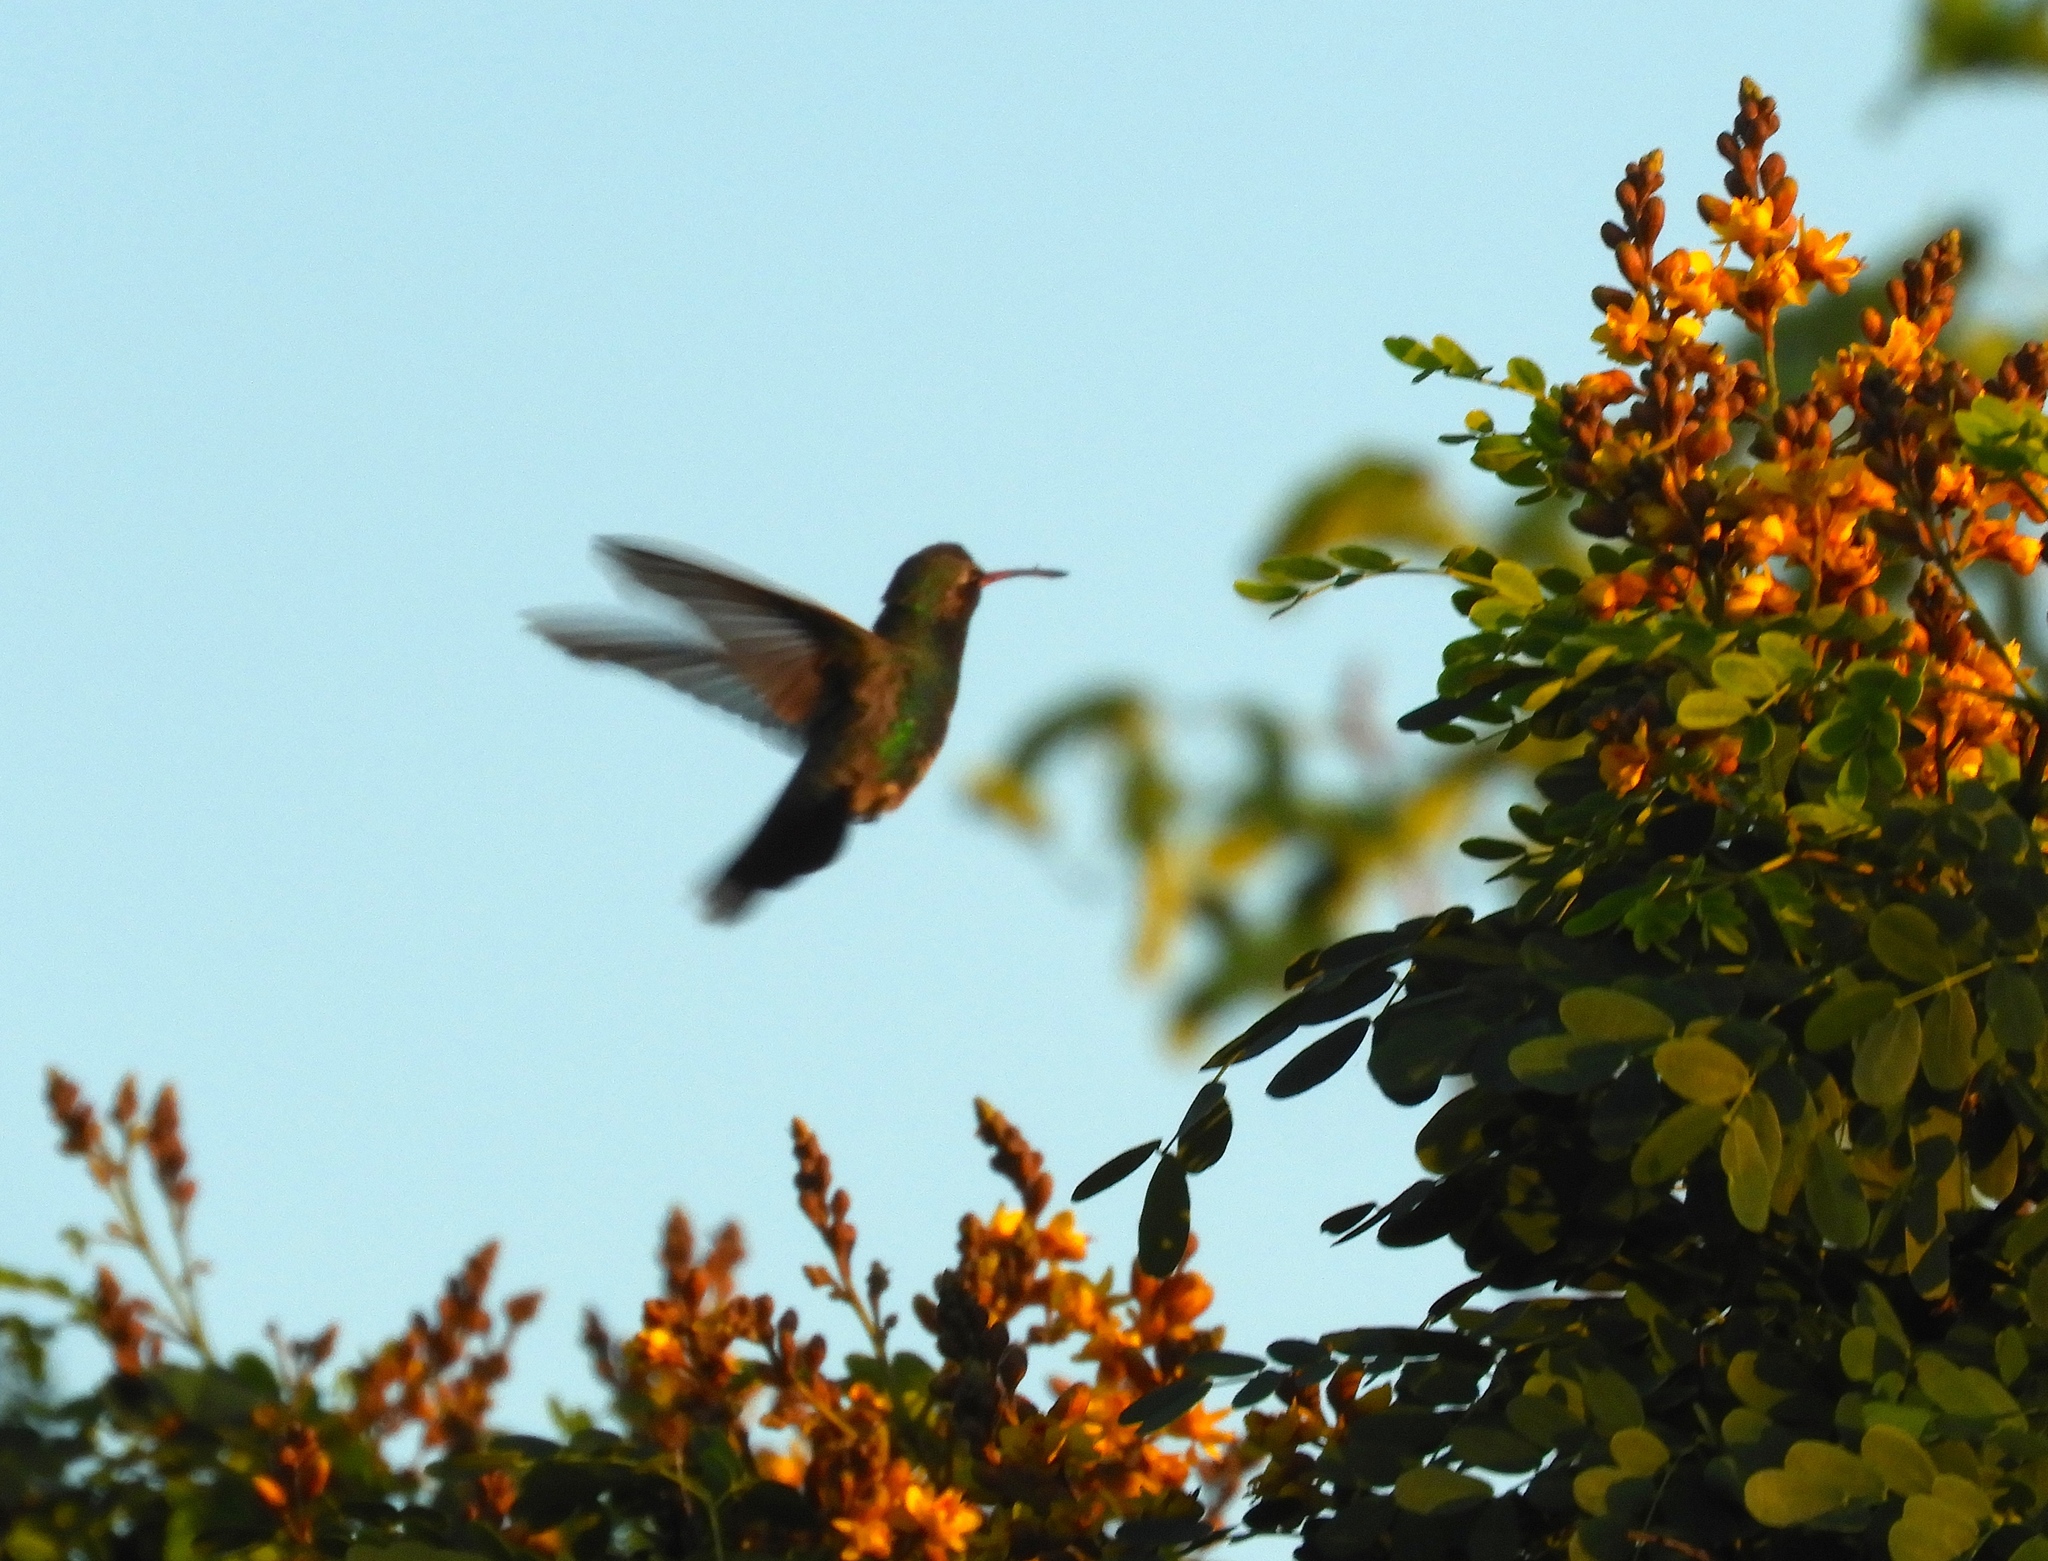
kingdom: Animalia
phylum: Chordata
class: Aves
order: Apodiformes
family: Trochilidae
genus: Cynanthus
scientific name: Cynanthus latirostris
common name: Broad-billed hummingbird
